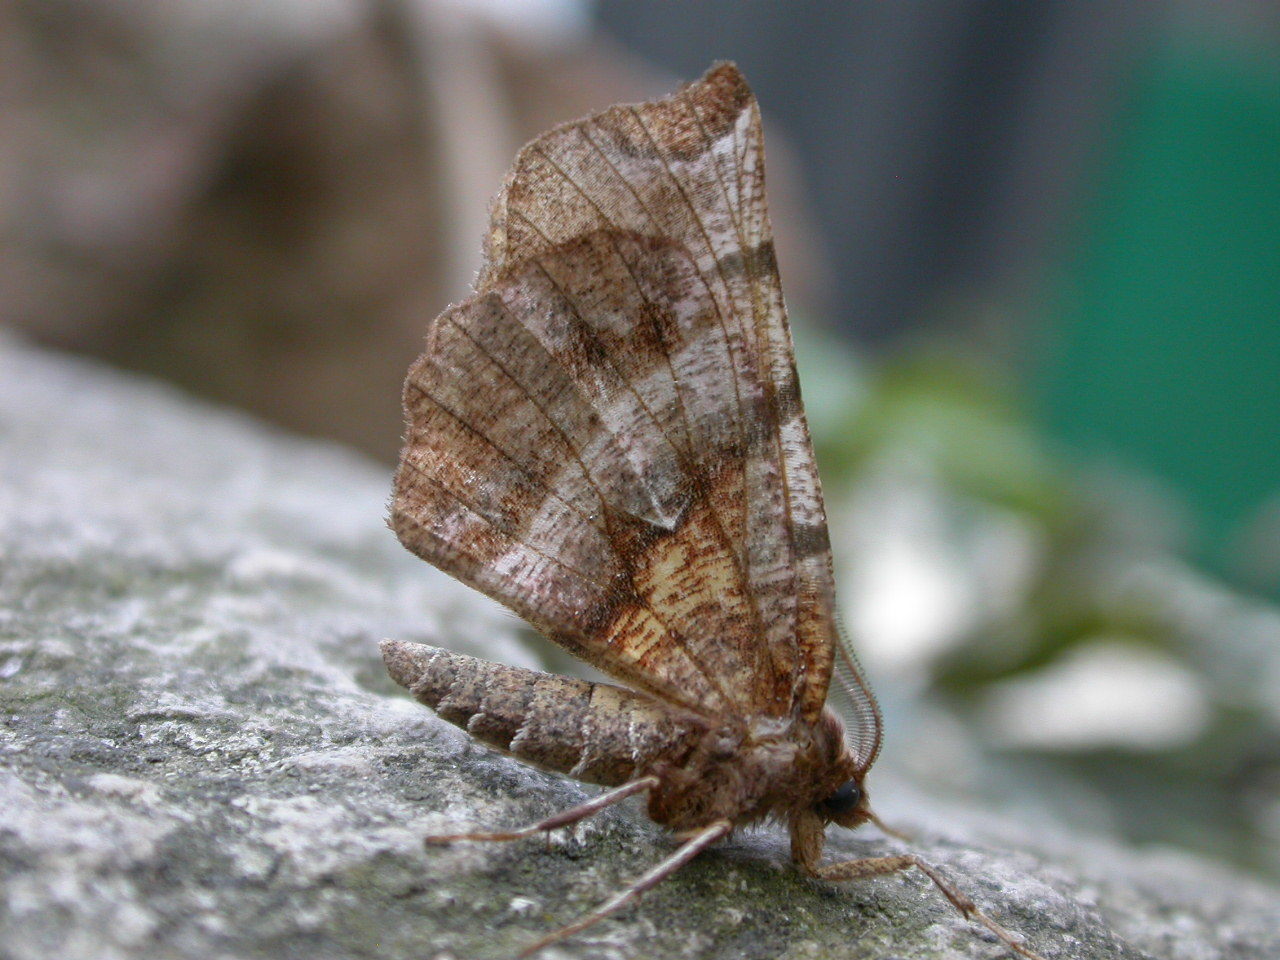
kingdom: Animalia
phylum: Arthropoda
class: Insecta
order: Lepidoptera
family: Geometridae
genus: Selenia
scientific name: Selenia dentaria
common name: Early thorn
